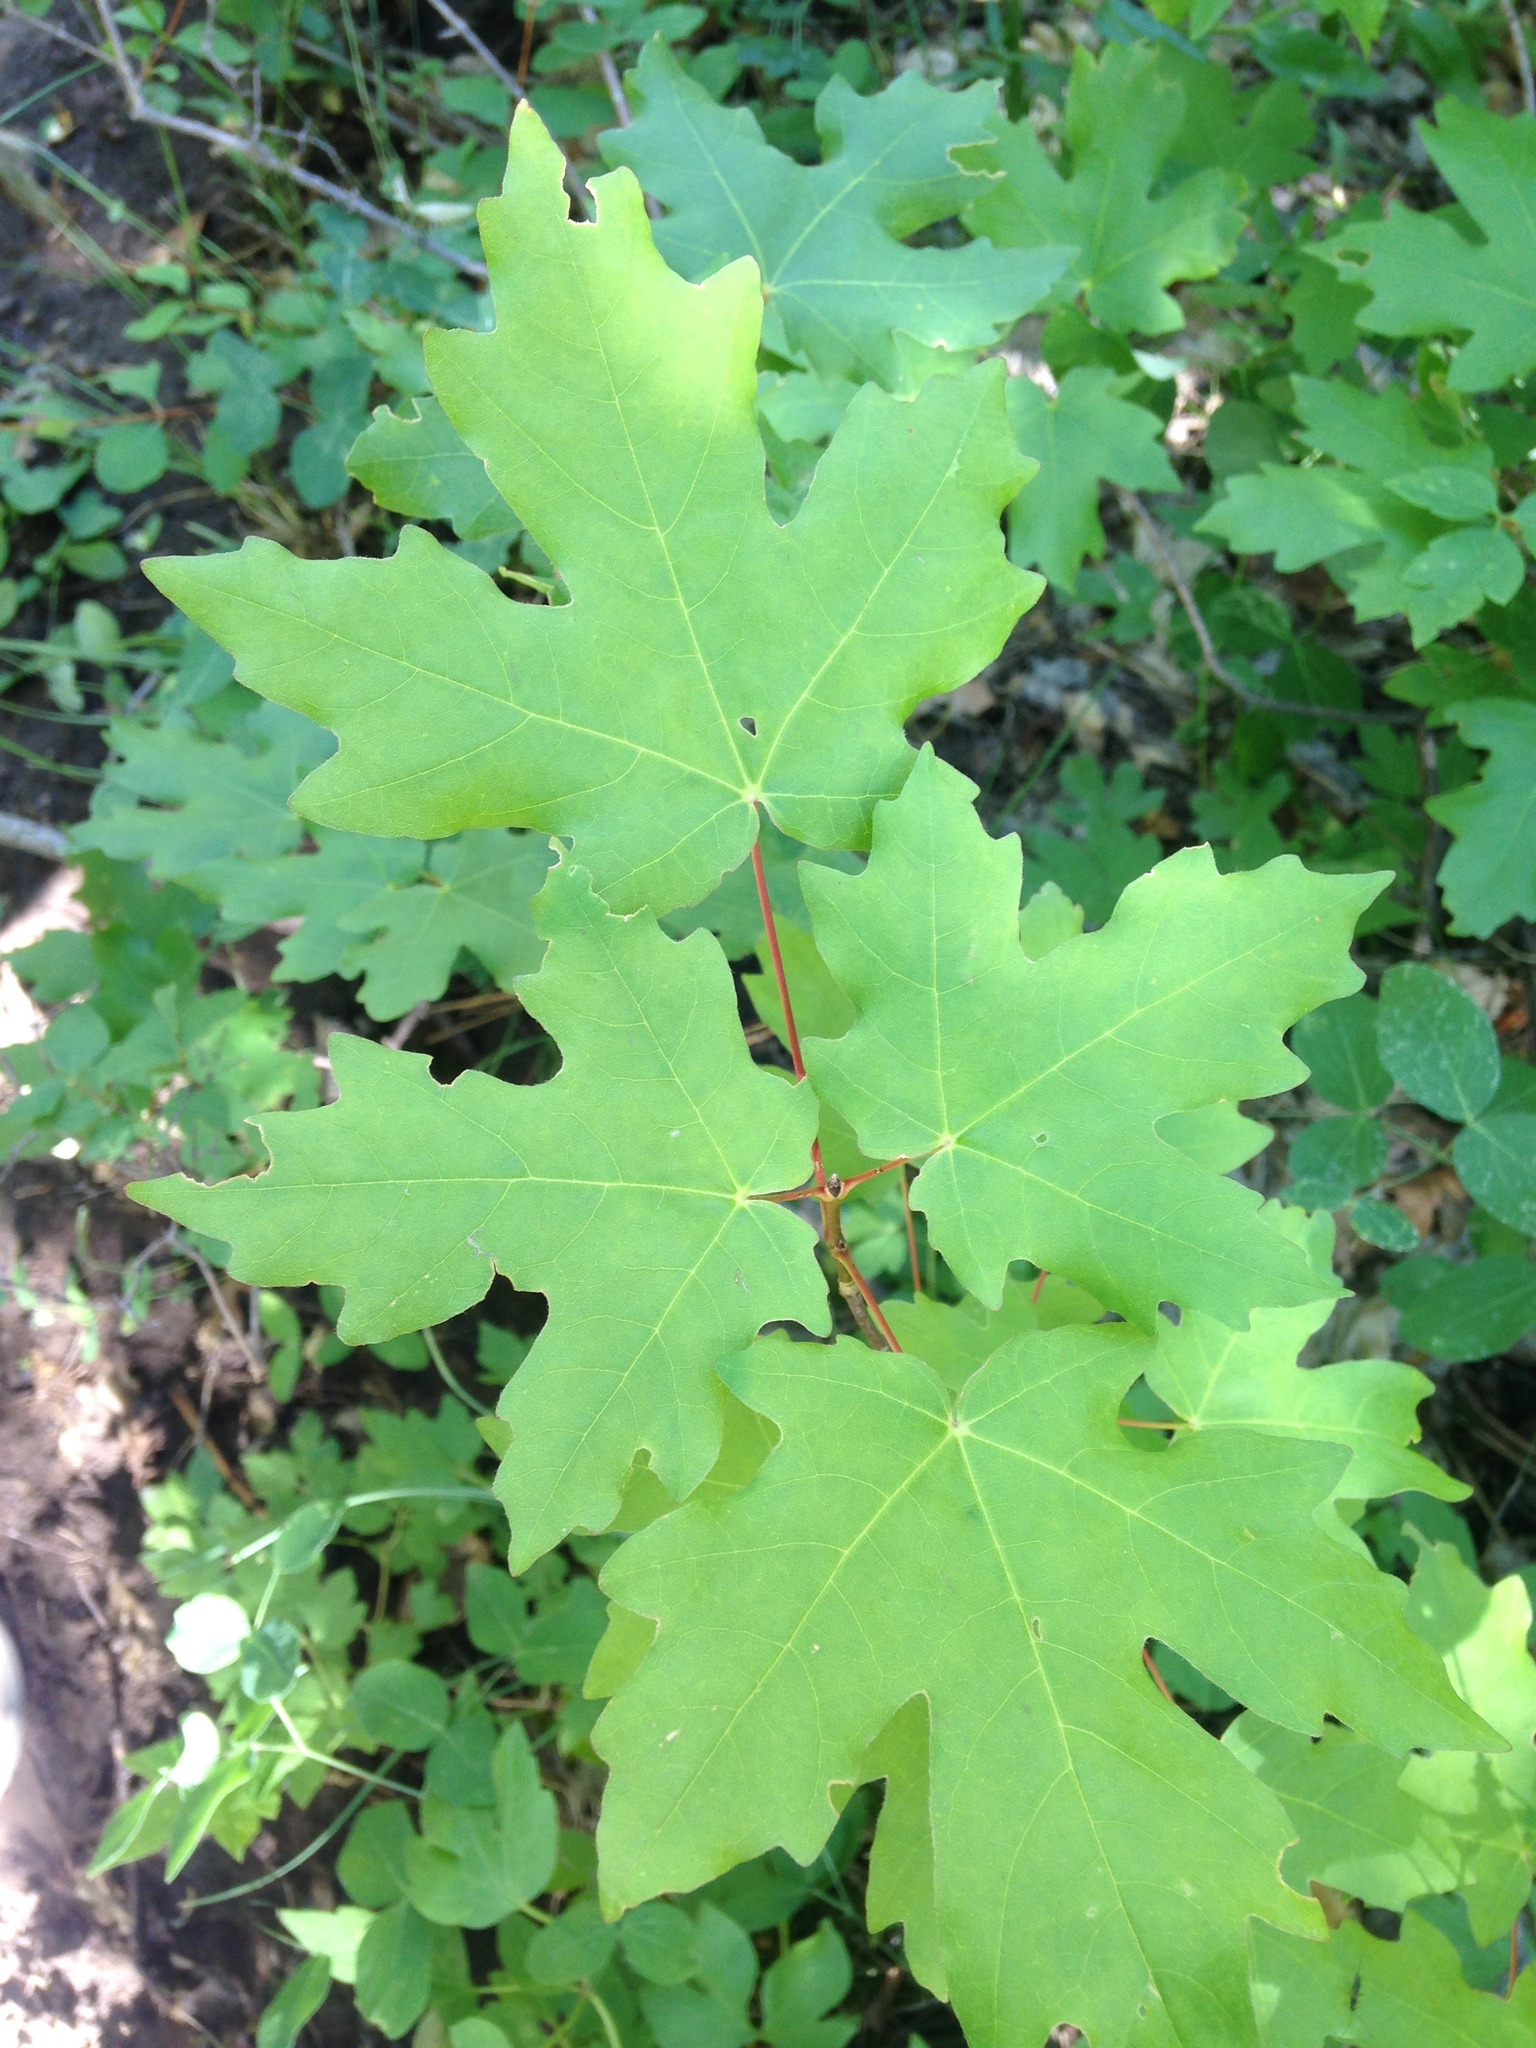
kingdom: Plantae
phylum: Tracheophyta
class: Magnoliopsida
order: Sapindales
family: Sapindaceae
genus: Acer
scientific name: Acer grandidentatum
